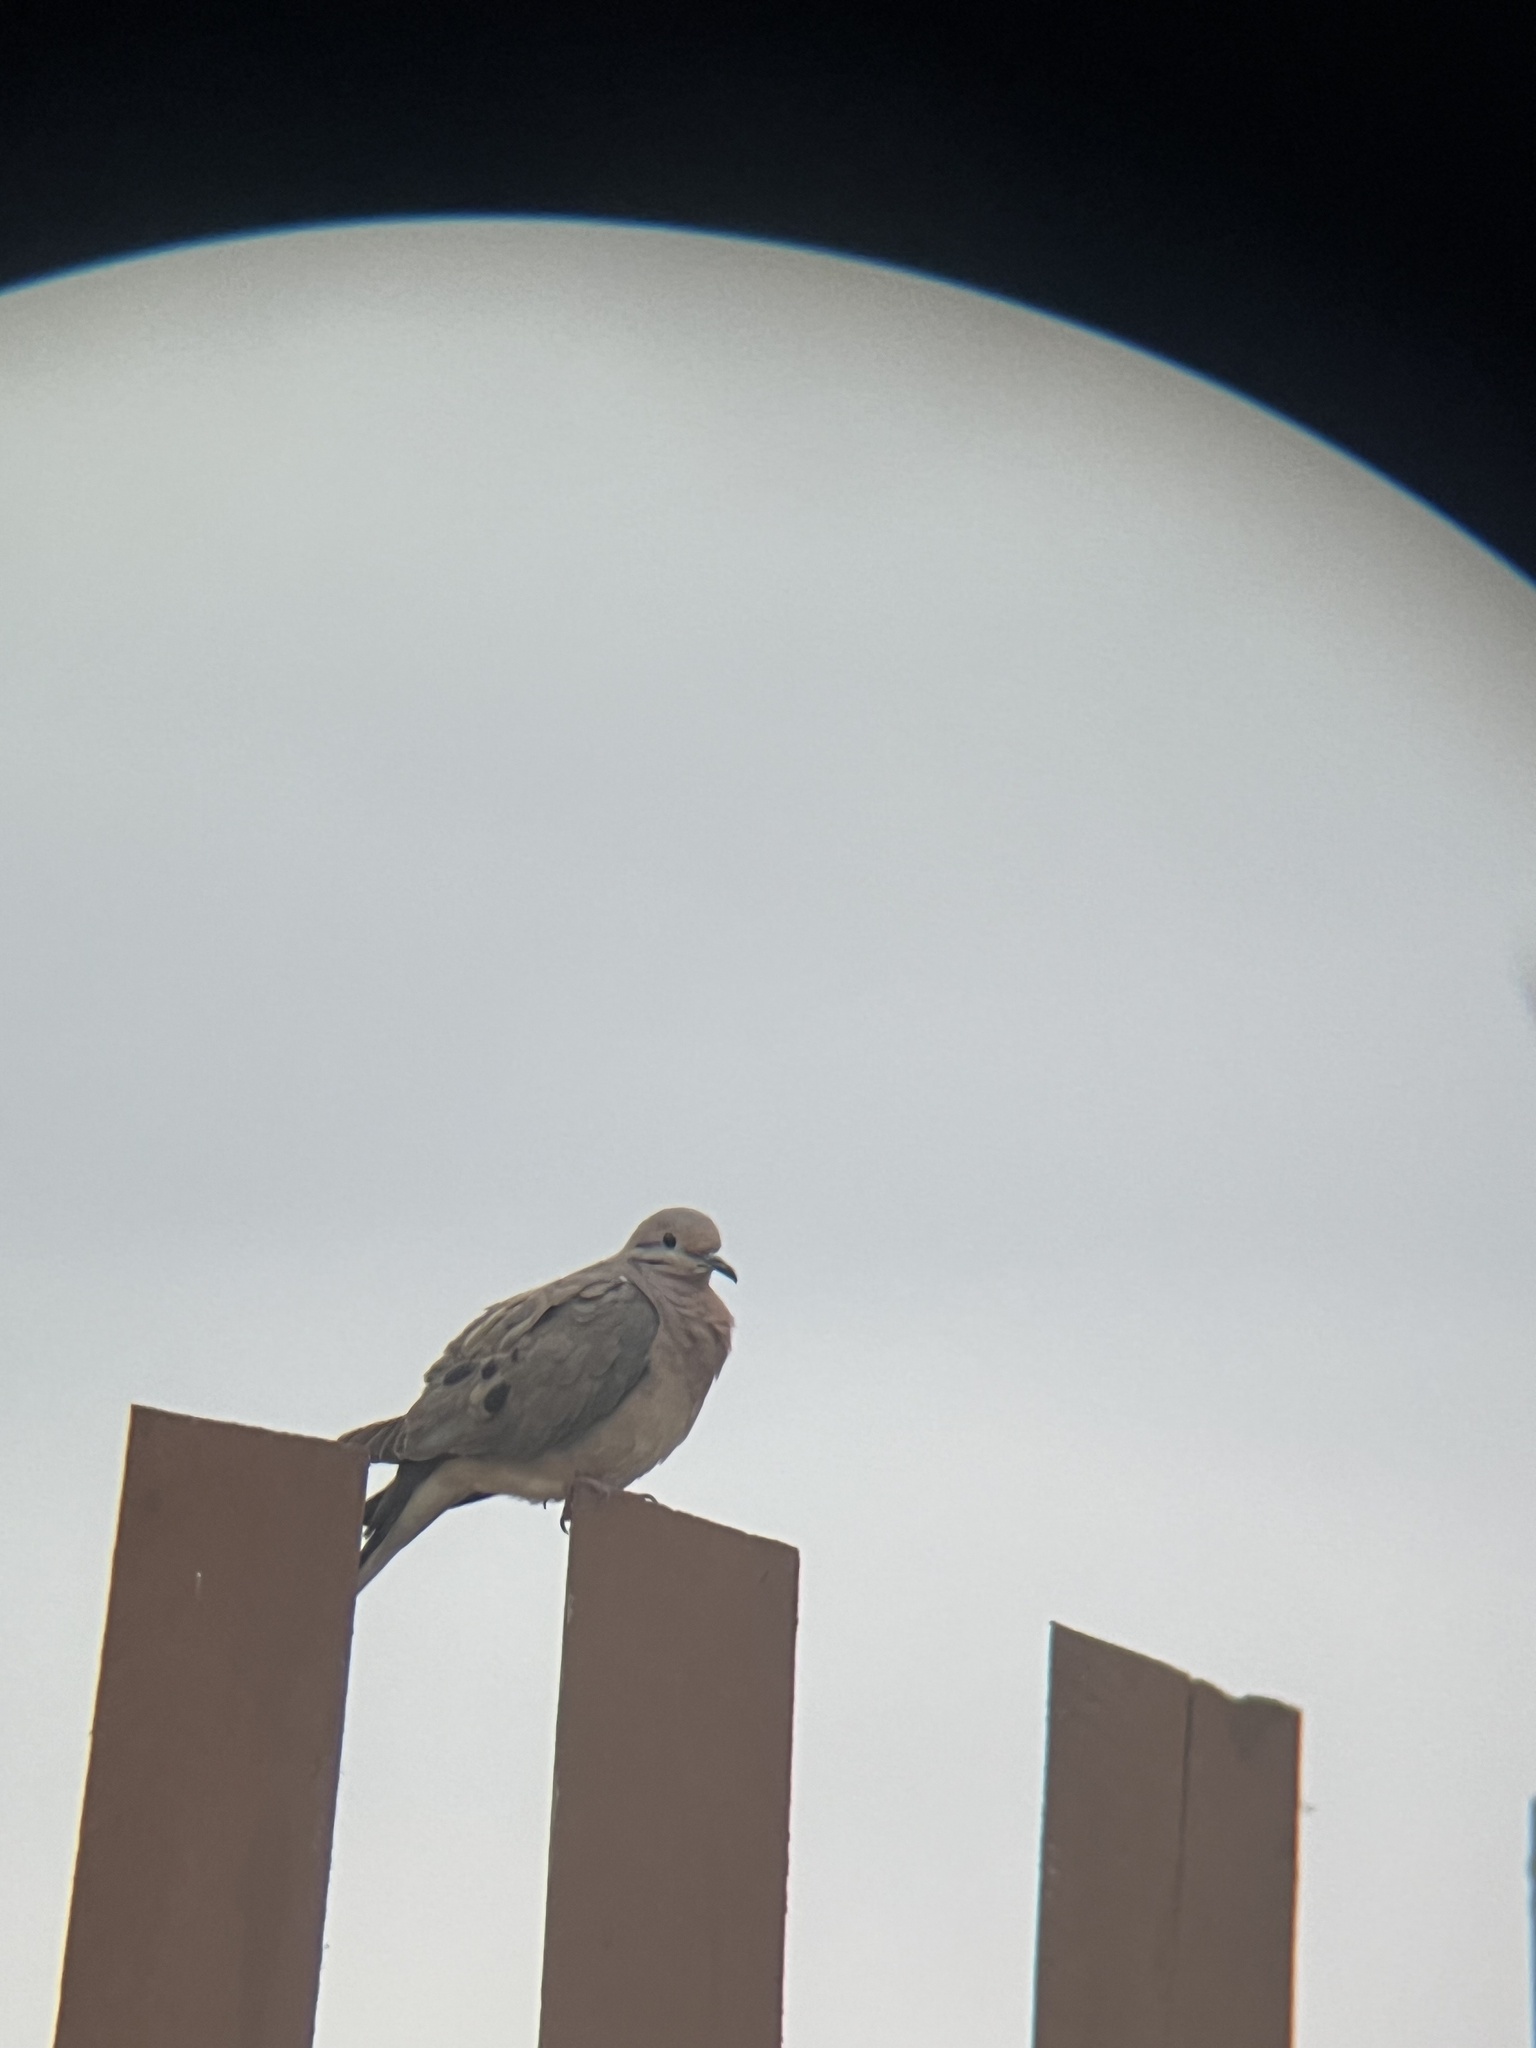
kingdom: Animalia
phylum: Chordata
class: Aves
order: Columbiformes
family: Columbidae
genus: Zenaida
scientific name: Zenaida auriculata
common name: Eared dove
